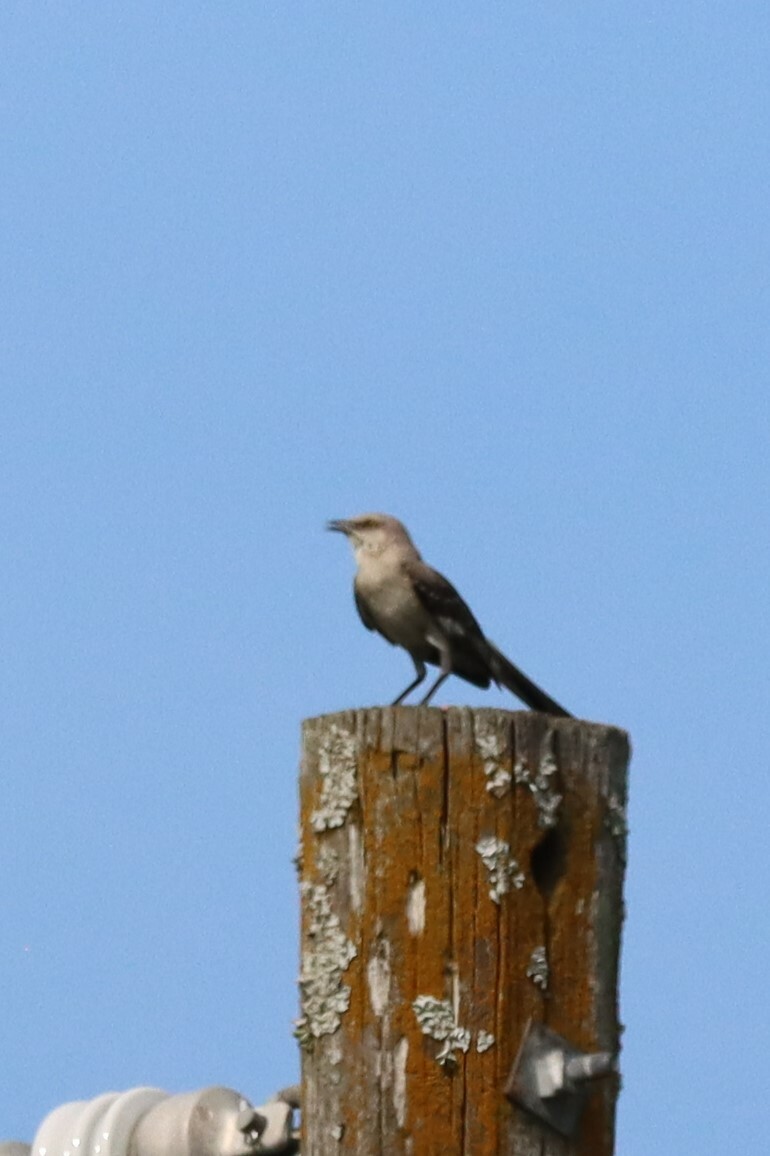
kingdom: Animalia
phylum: Chordata
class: Aves
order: Passeriformes
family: Mimidae
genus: Mimus
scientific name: Mimus polyglottos
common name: Northern mockingbird
